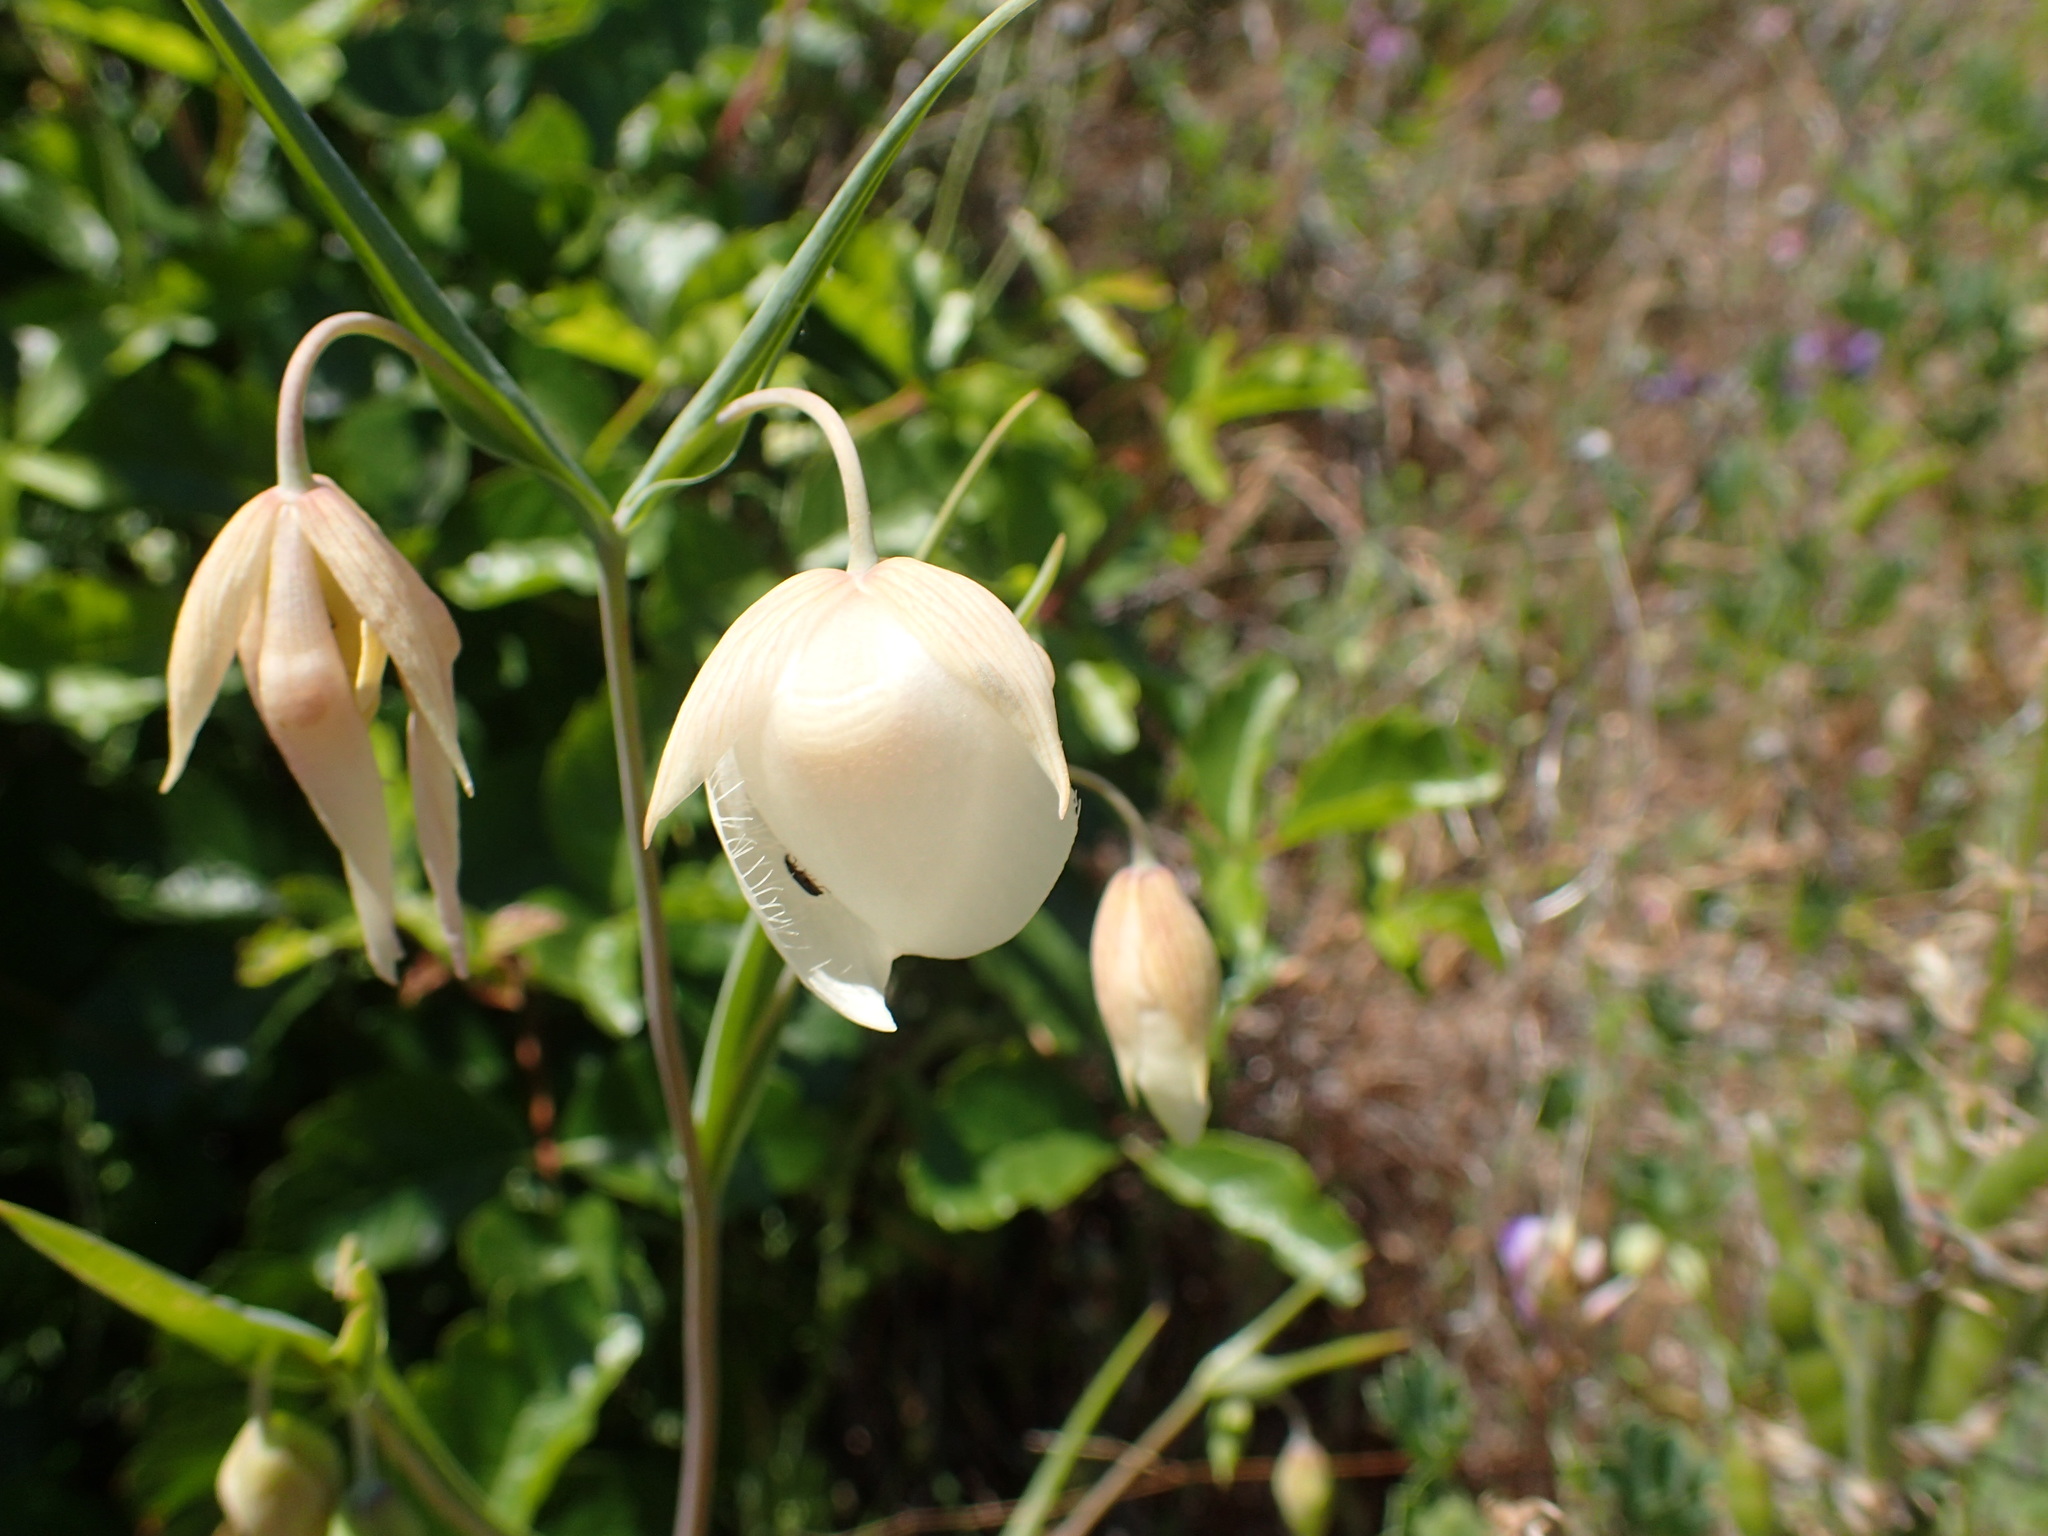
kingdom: Plantae
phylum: Tracheophyta
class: Liliopsida
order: Liliales
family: Liliaceae
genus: Calochortus
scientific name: Calochortus albus
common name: Fairy-lantern
